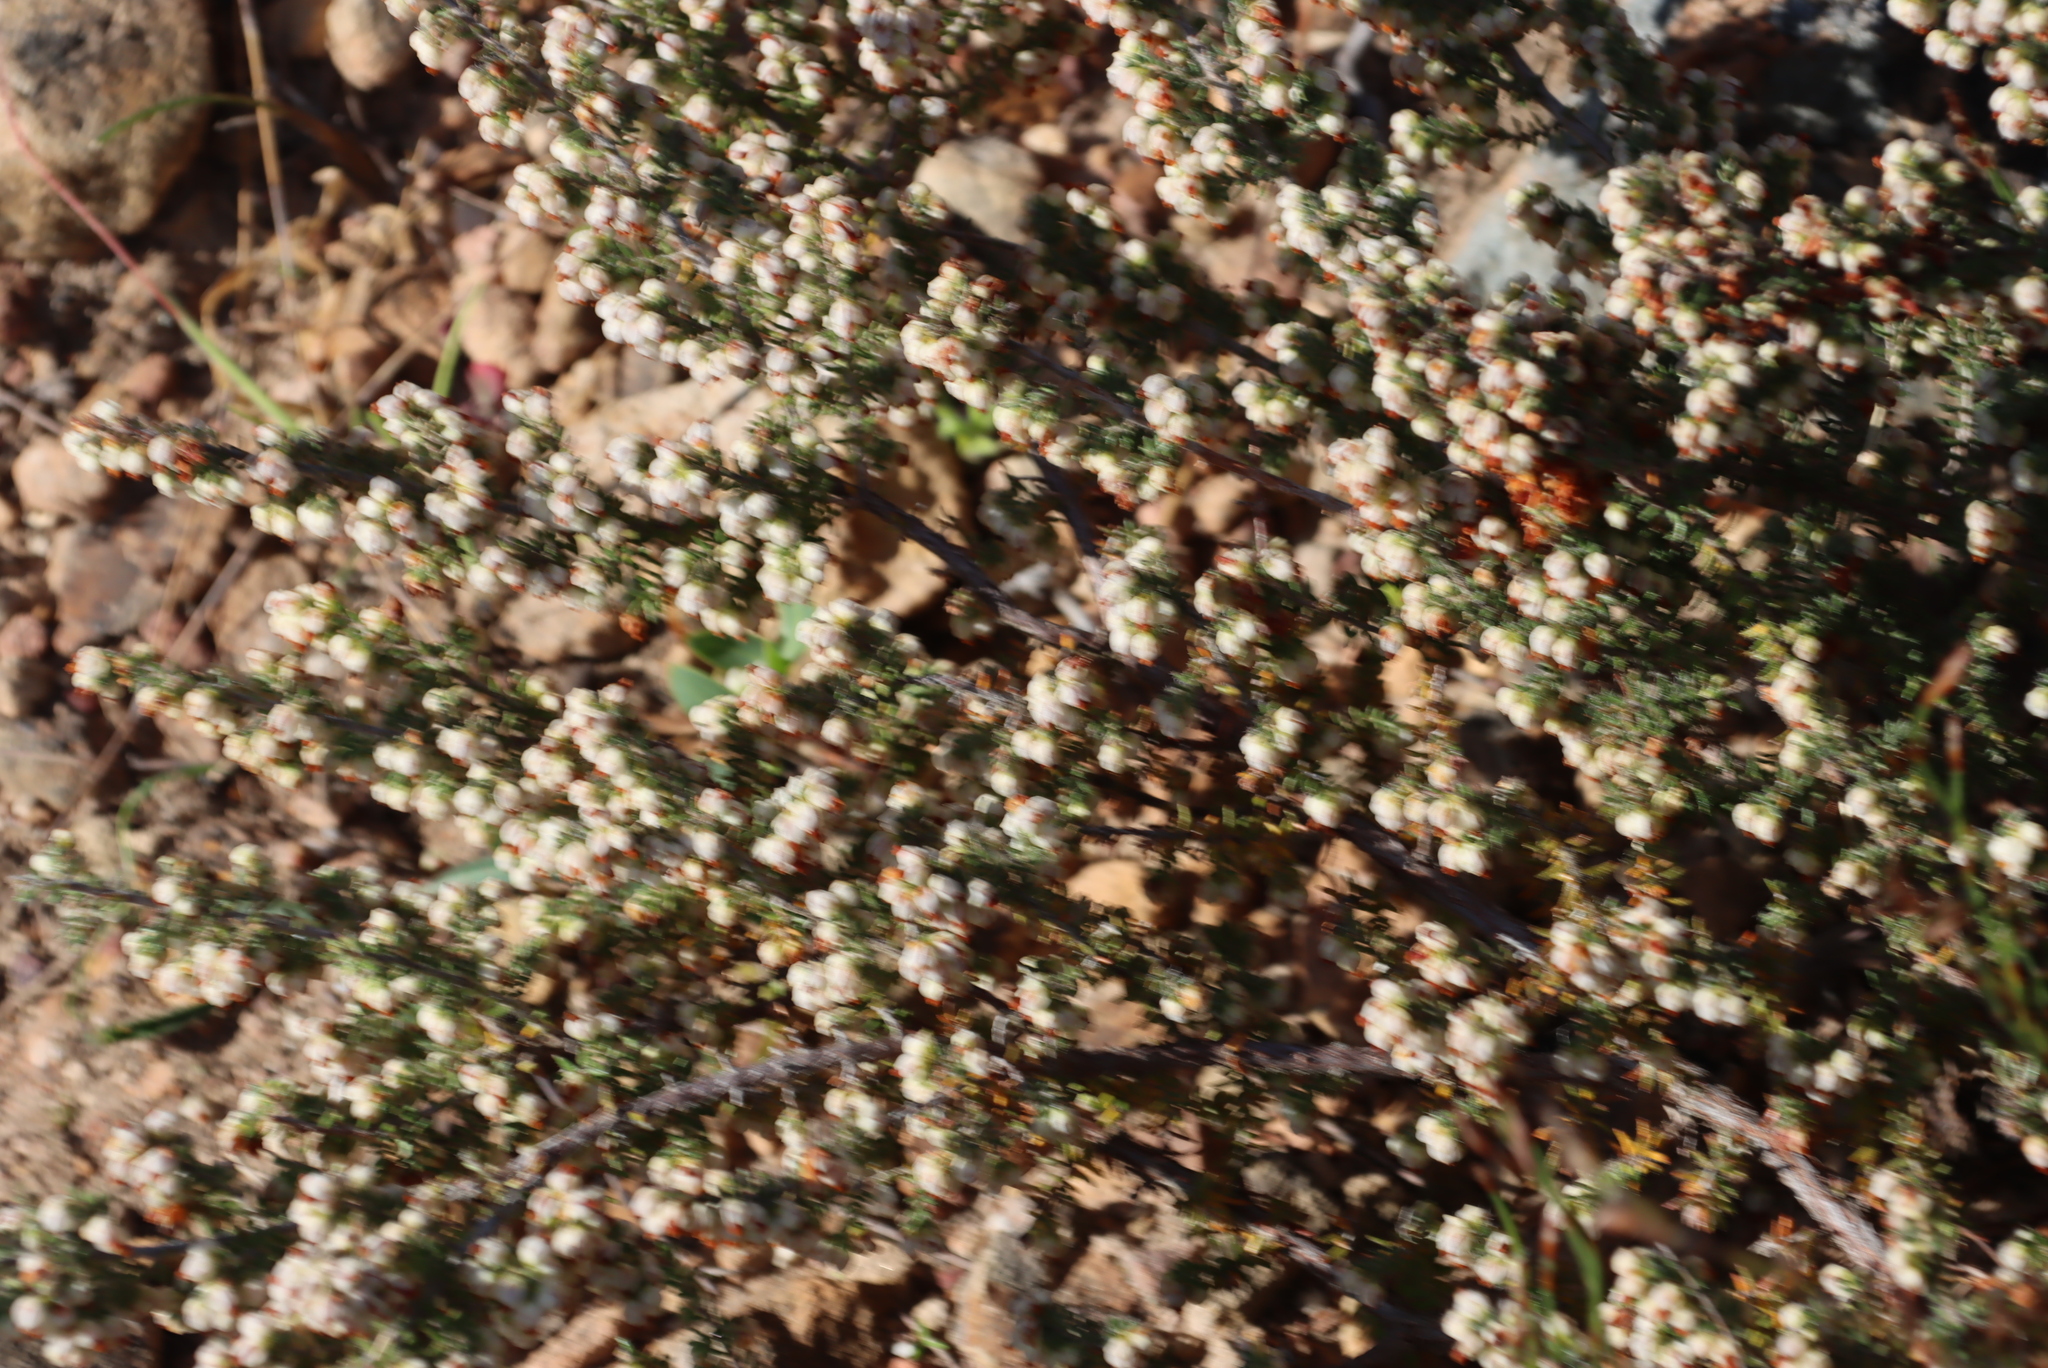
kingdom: Plantae
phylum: Tracheophyta
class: Magnoliopsida
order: Ericales
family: Ericaceae
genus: Erica
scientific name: Erica totta
